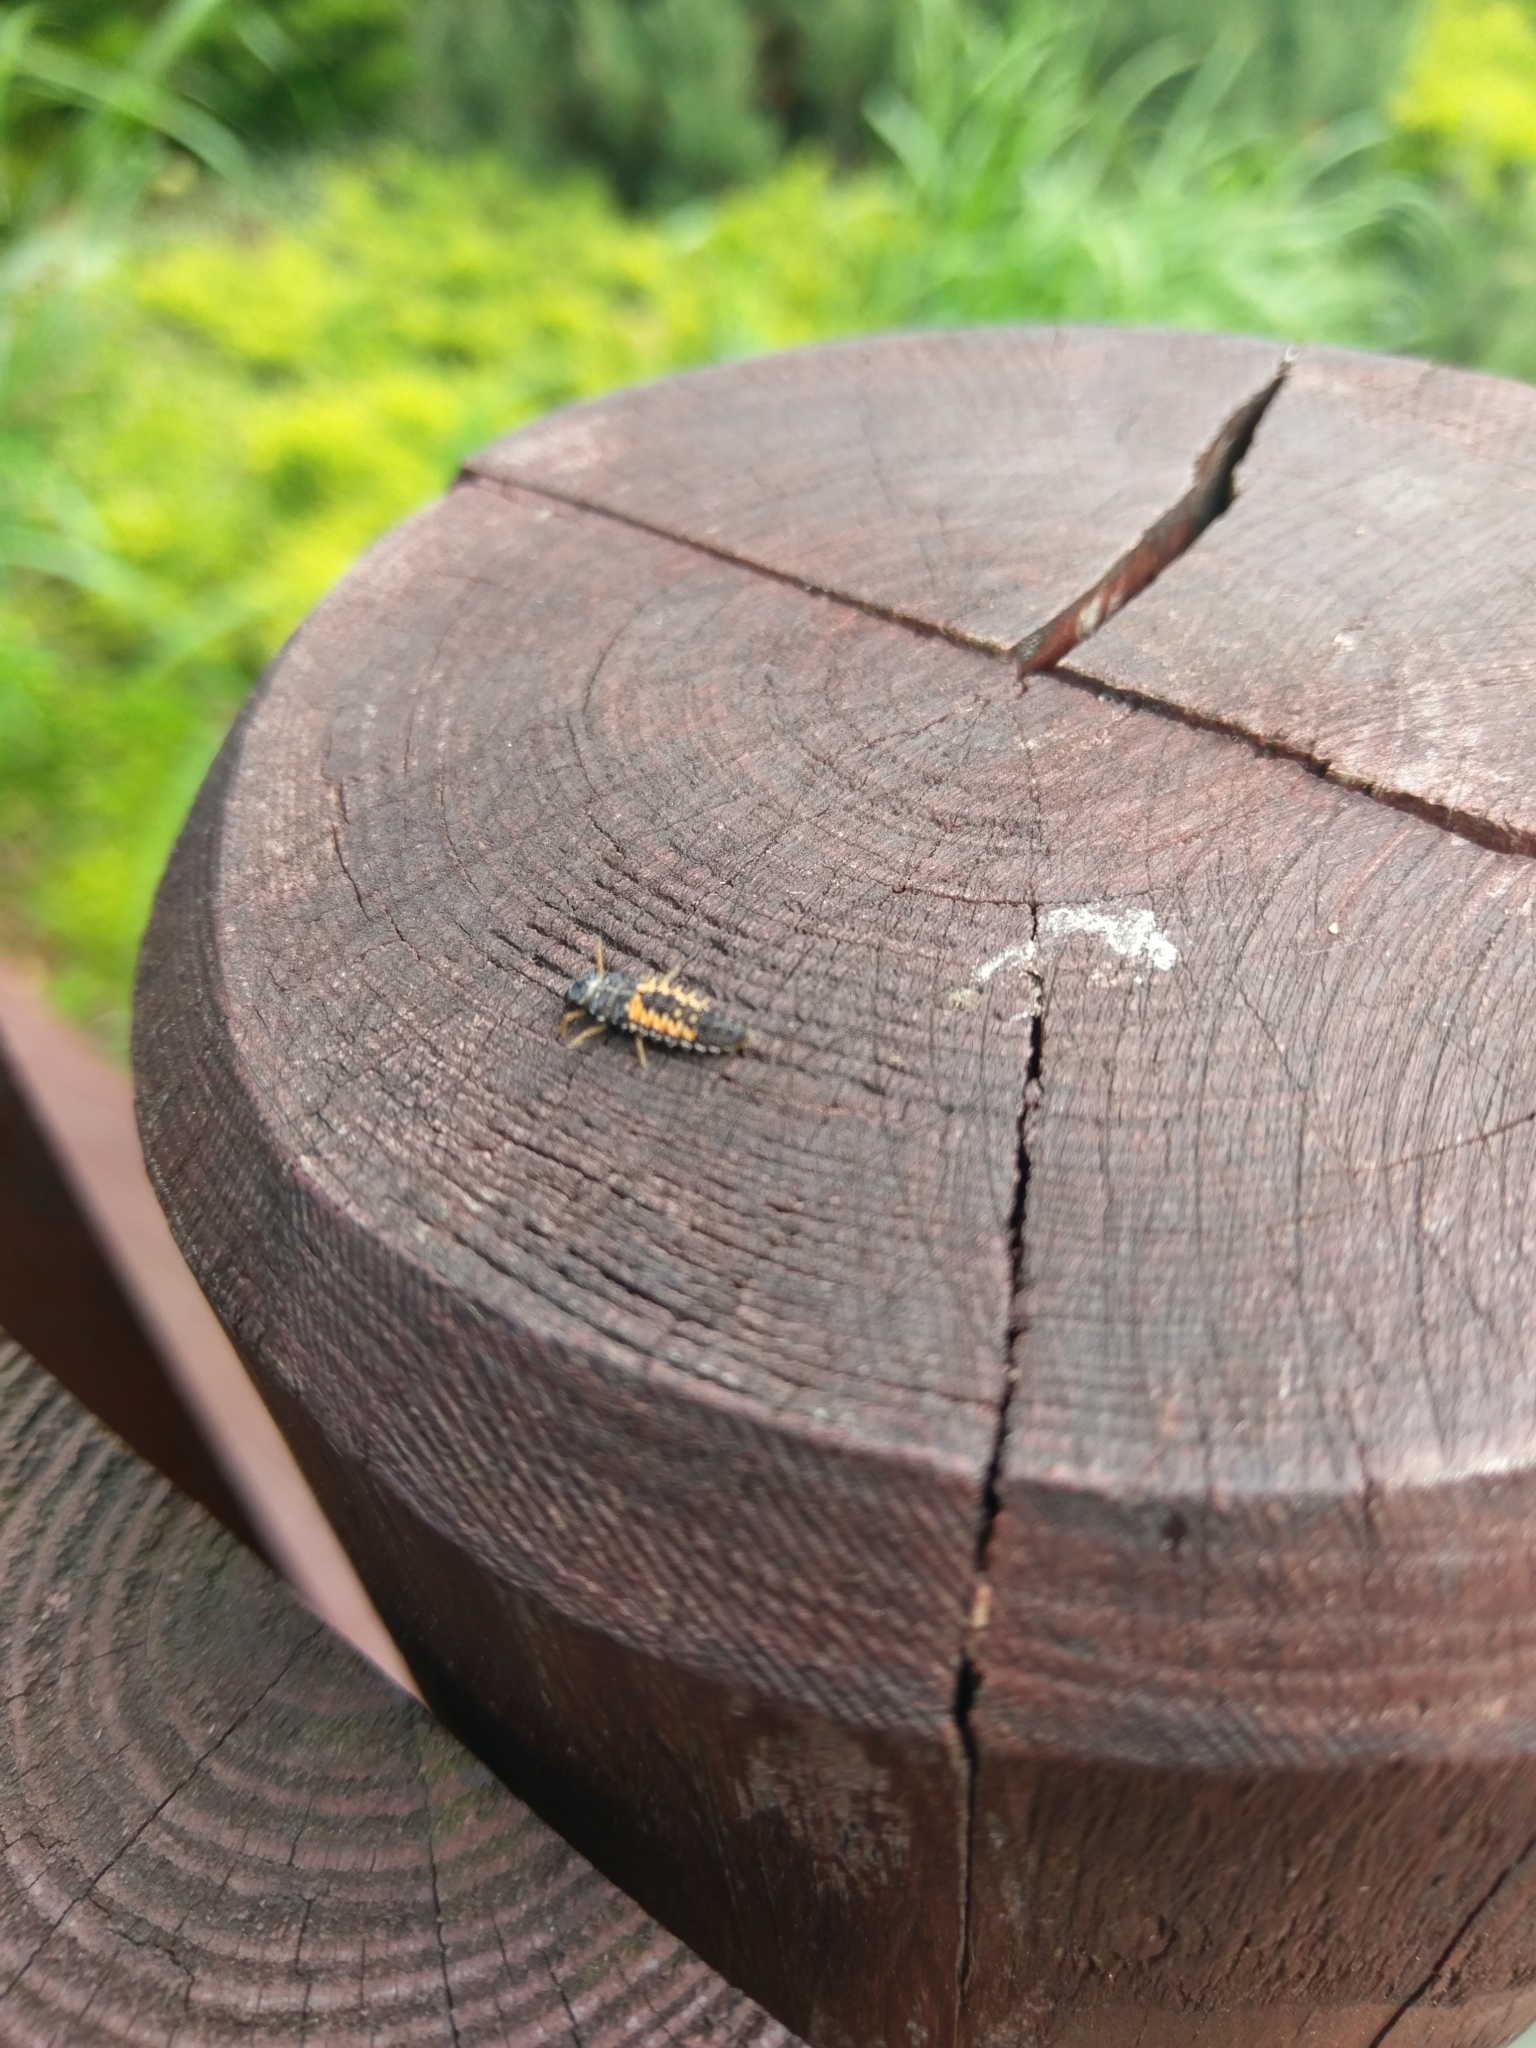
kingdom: Animalia
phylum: Arthropoda
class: Insecta
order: Coleoptera
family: Coccinellidae
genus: Harmonia
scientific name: Harmonia axyridis
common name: Harlequin ladybird
